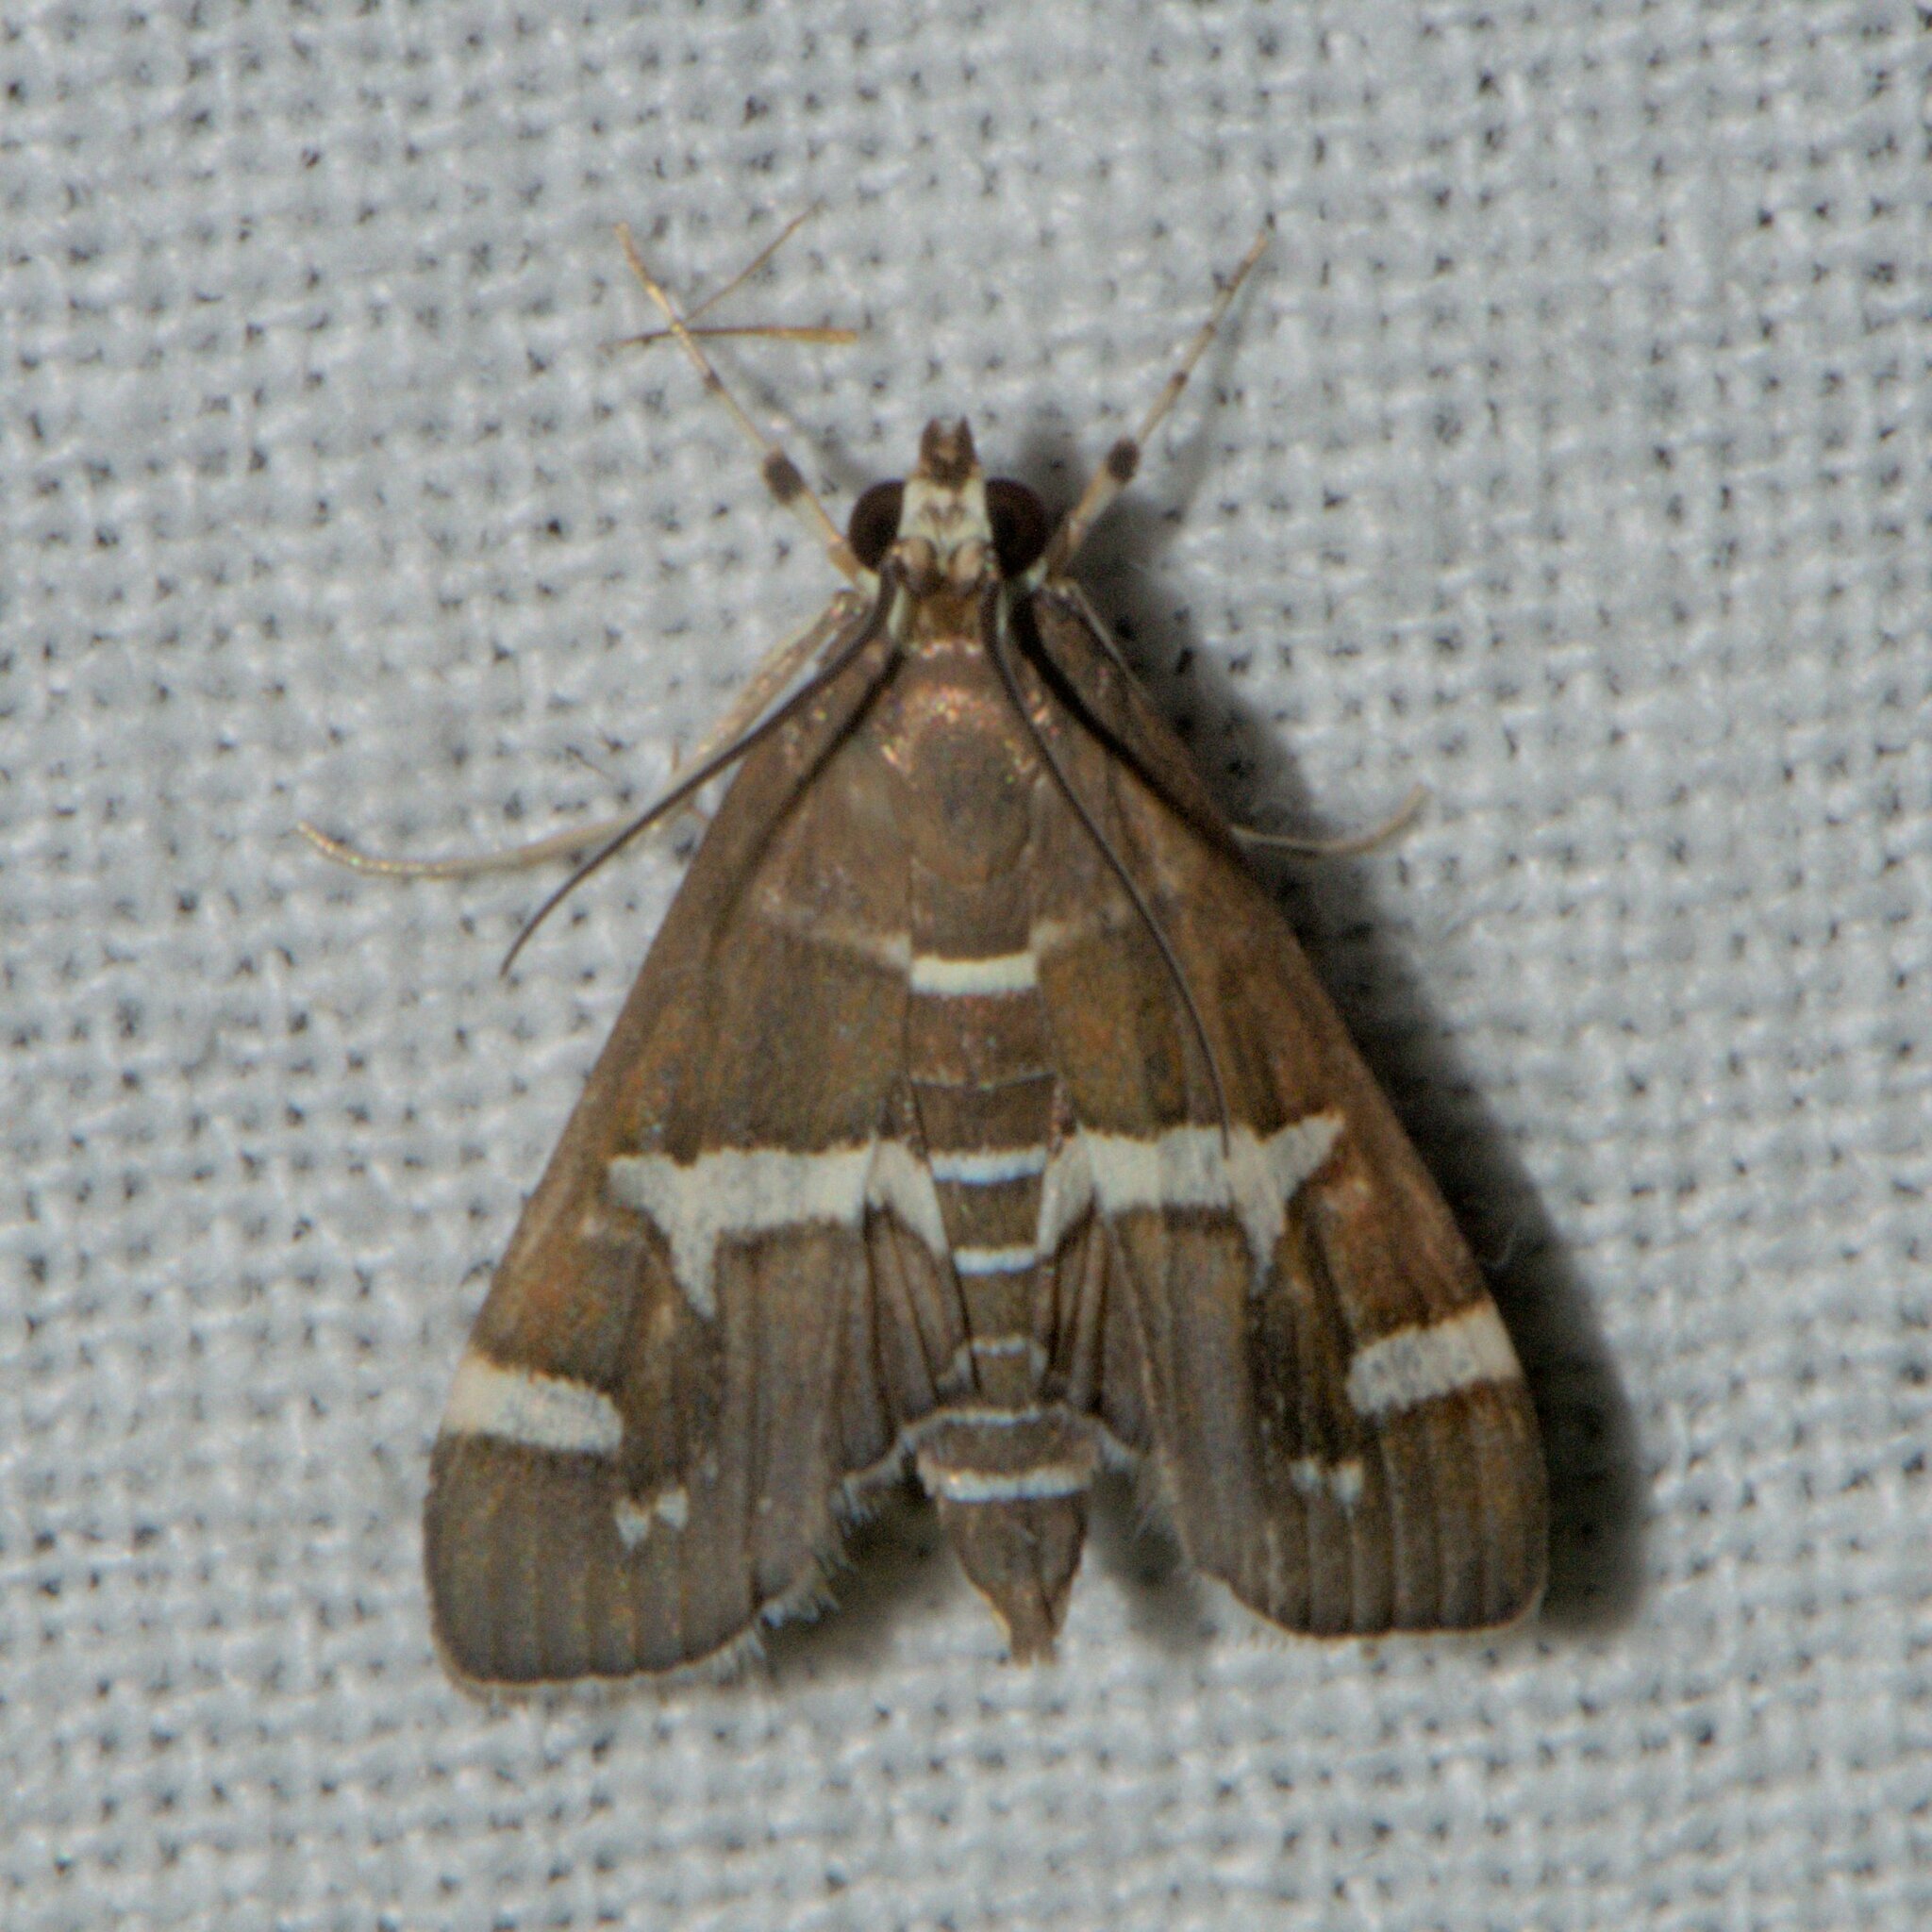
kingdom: Animalia
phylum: Arthropoda
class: Insecta
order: Lepidoptera
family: Crambidae
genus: Spoladea
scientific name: Spoladea recurvalis
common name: Beet webworm moth
